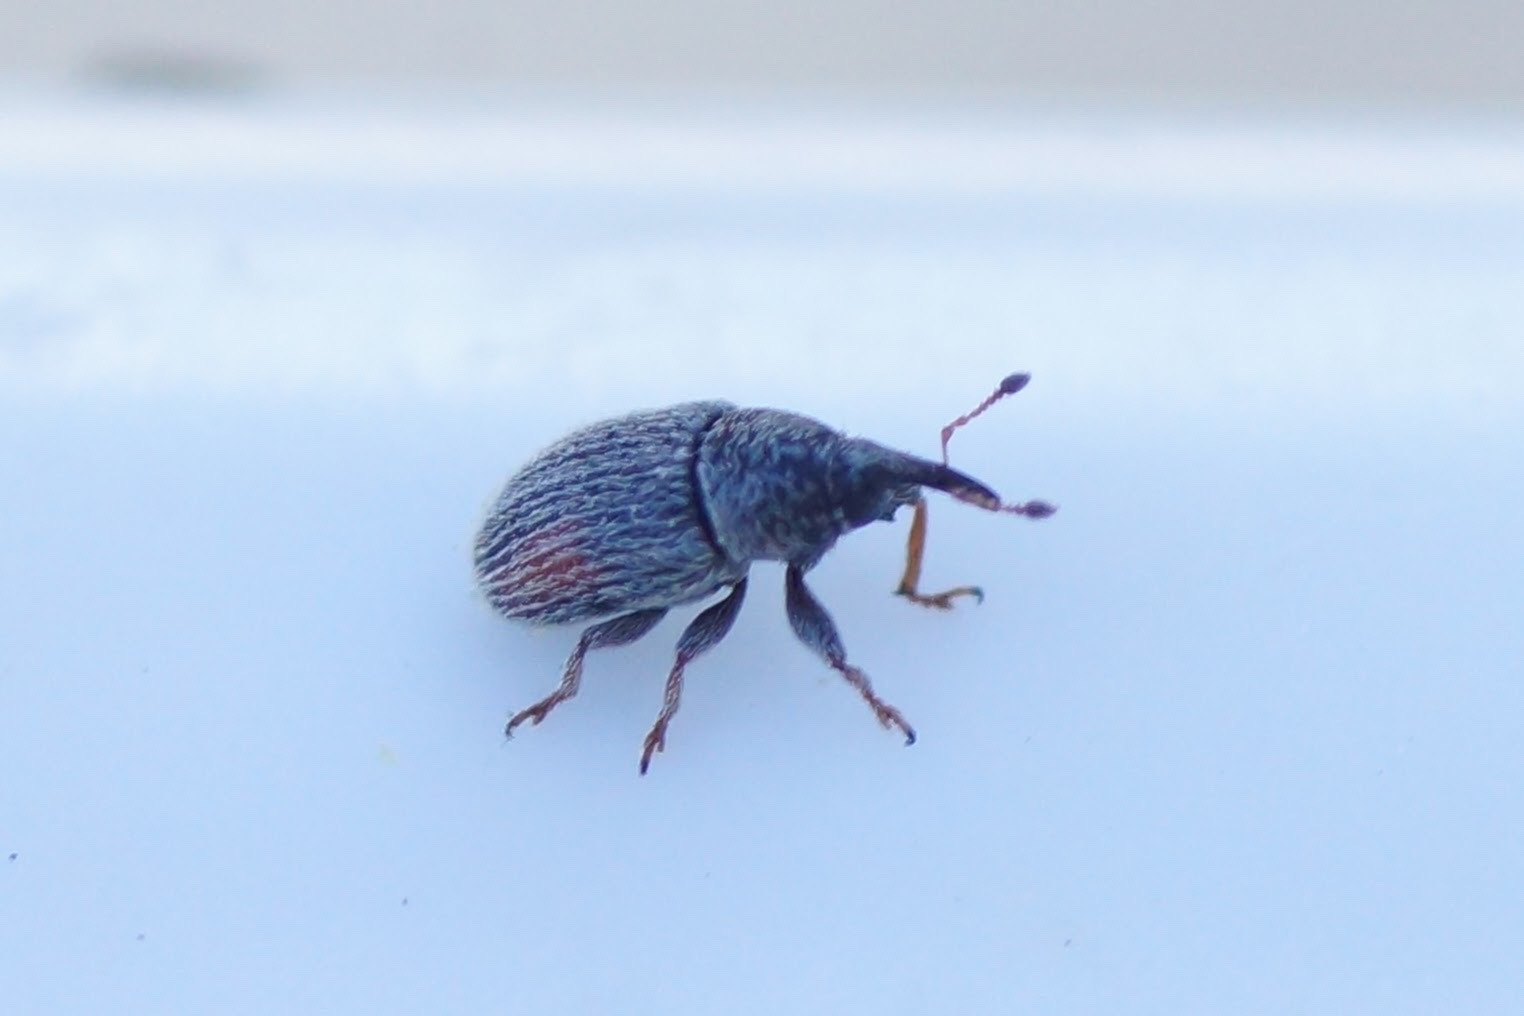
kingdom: Animalia
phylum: Arthropoda
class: Insecta
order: Coleoptera
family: Curculionidae
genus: Mecinus
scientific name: Mecinus pascuorum
